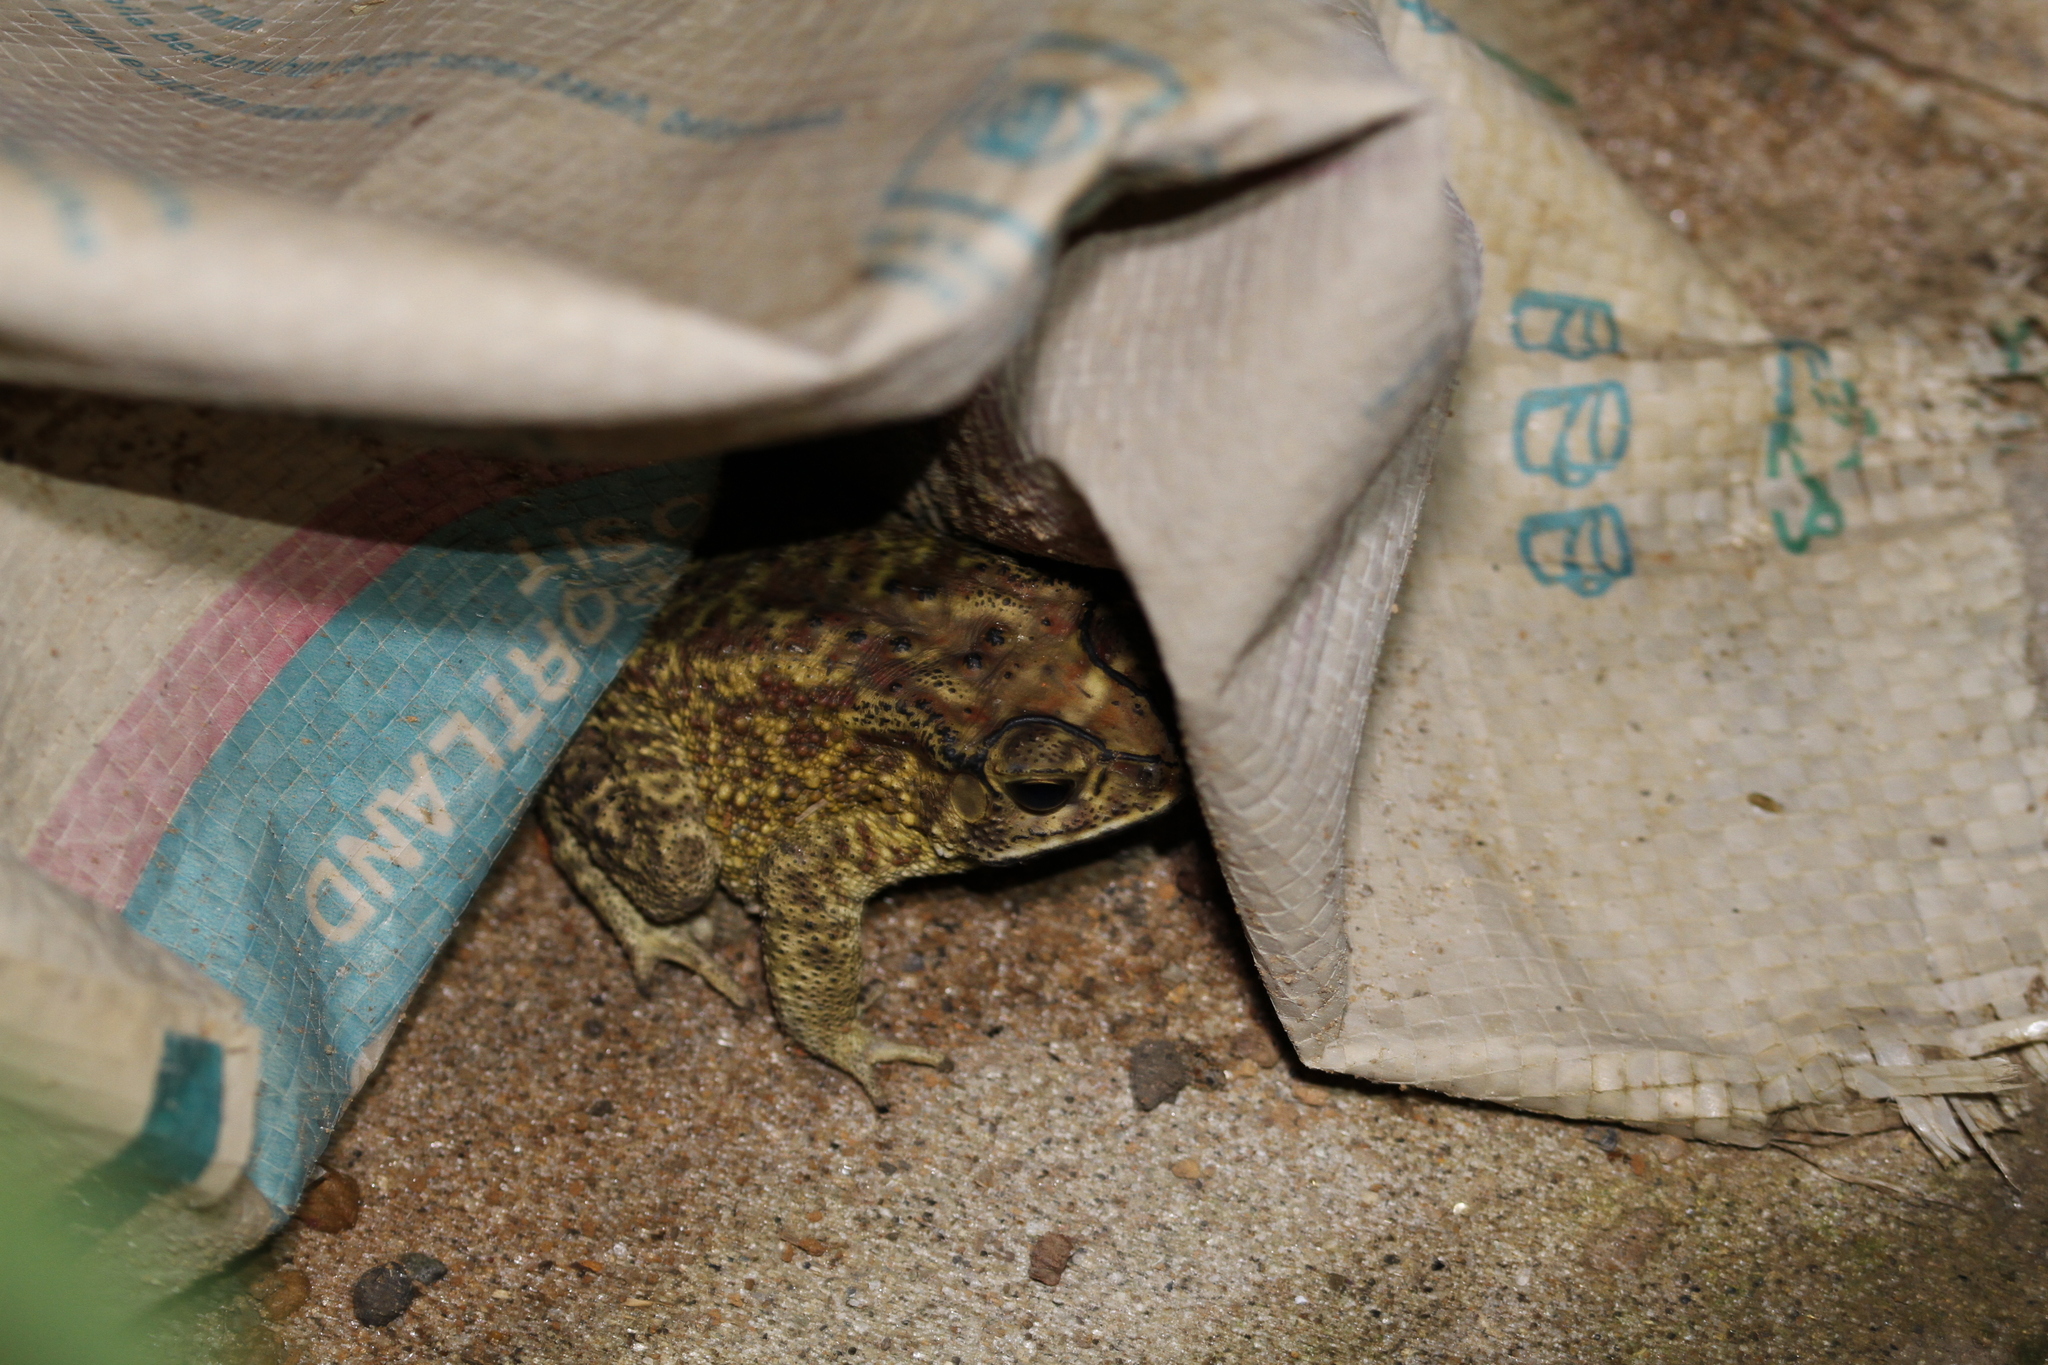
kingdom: Animalia
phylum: Chordata
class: Amphibia
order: Anura
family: Bufonidae
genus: Duttaphrynus
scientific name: Duttaphrynus melanostictus
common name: Common sunda toad
